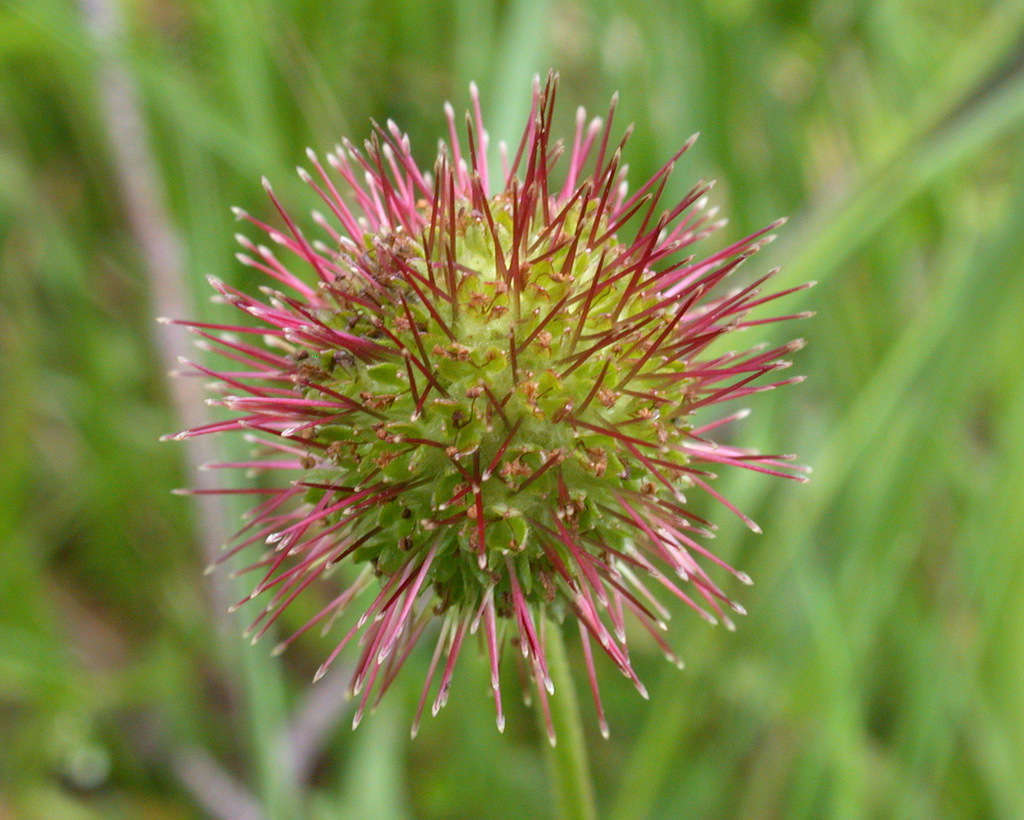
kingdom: Plantae
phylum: Tracheophyta
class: Magnoliopsida
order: Rosales
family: Rosaceae
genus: Acaena
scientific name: Acaena novae-zelandiae
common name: Pirri-pirri-bur
